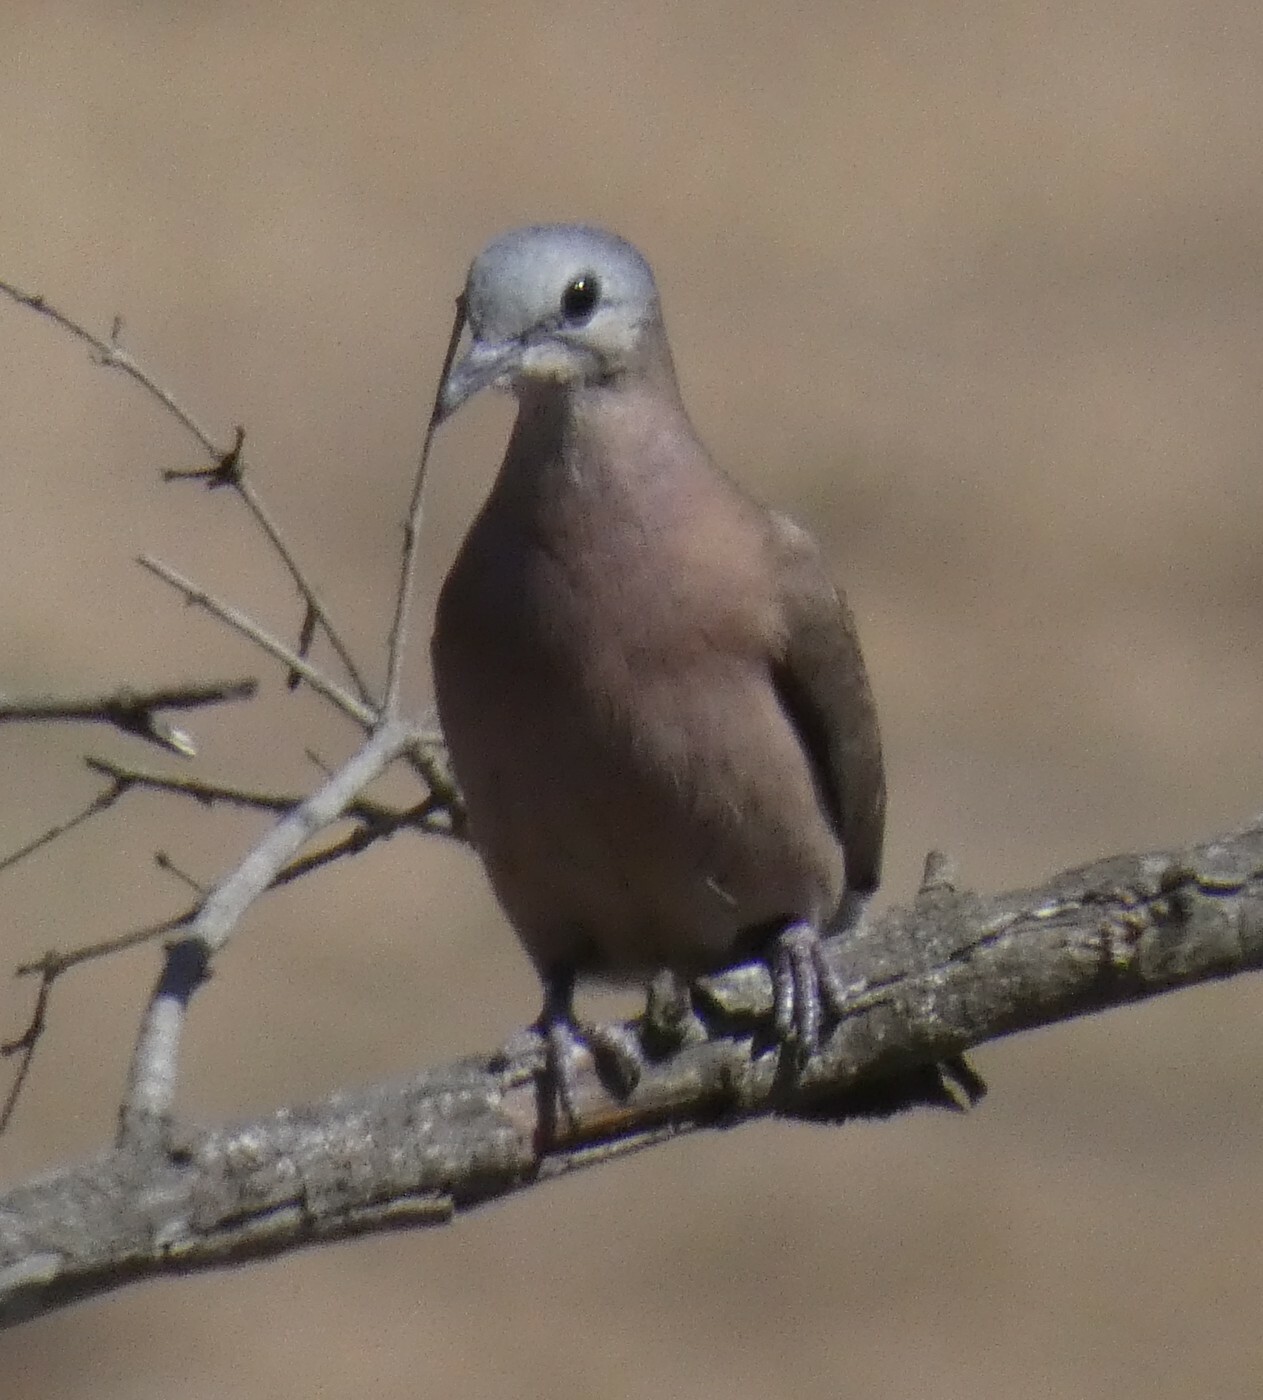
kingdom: Animalia
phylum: Chordata
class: Aves
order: Columbiformes
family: Columbidae
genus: Turtur
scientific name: Turtur chalcospilos
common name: Emerald-spotted wood dove
